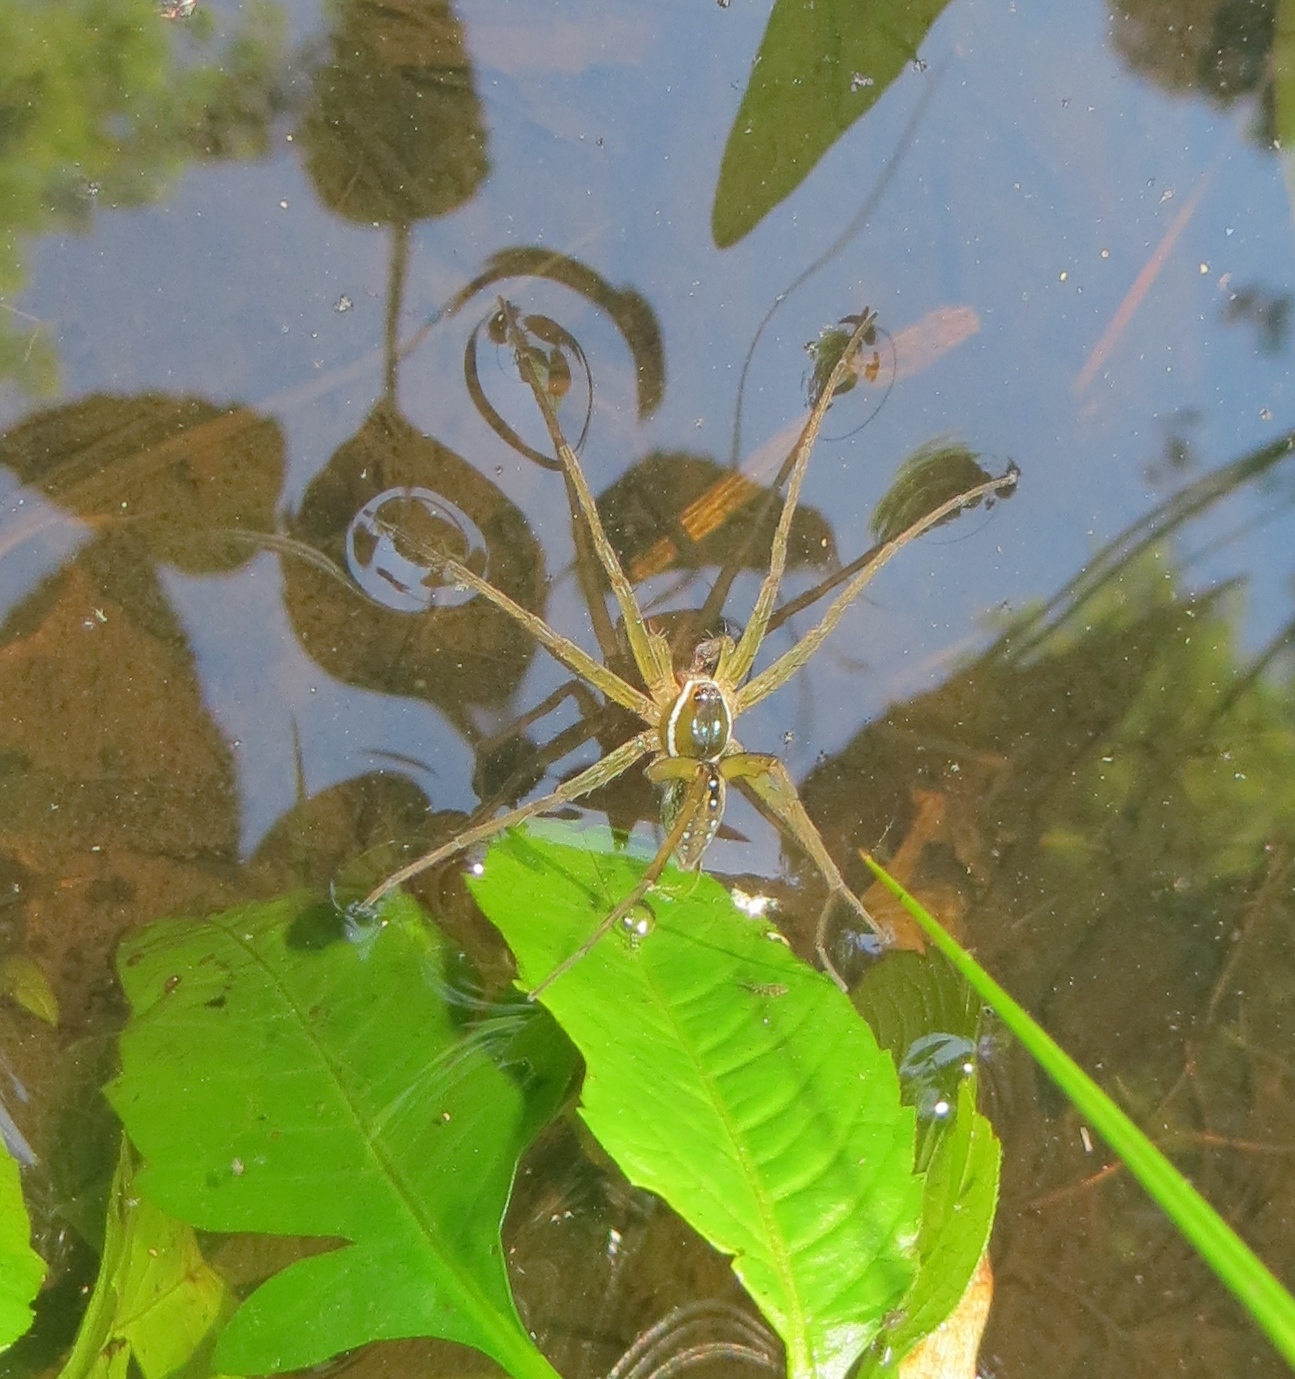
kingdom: Animalia
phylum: Arthropoda
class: Arachnida
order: Araneae
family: Pisauridae
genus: Dolomedes
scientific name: Dolomedes triton
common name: Six-spotted fishing spider
